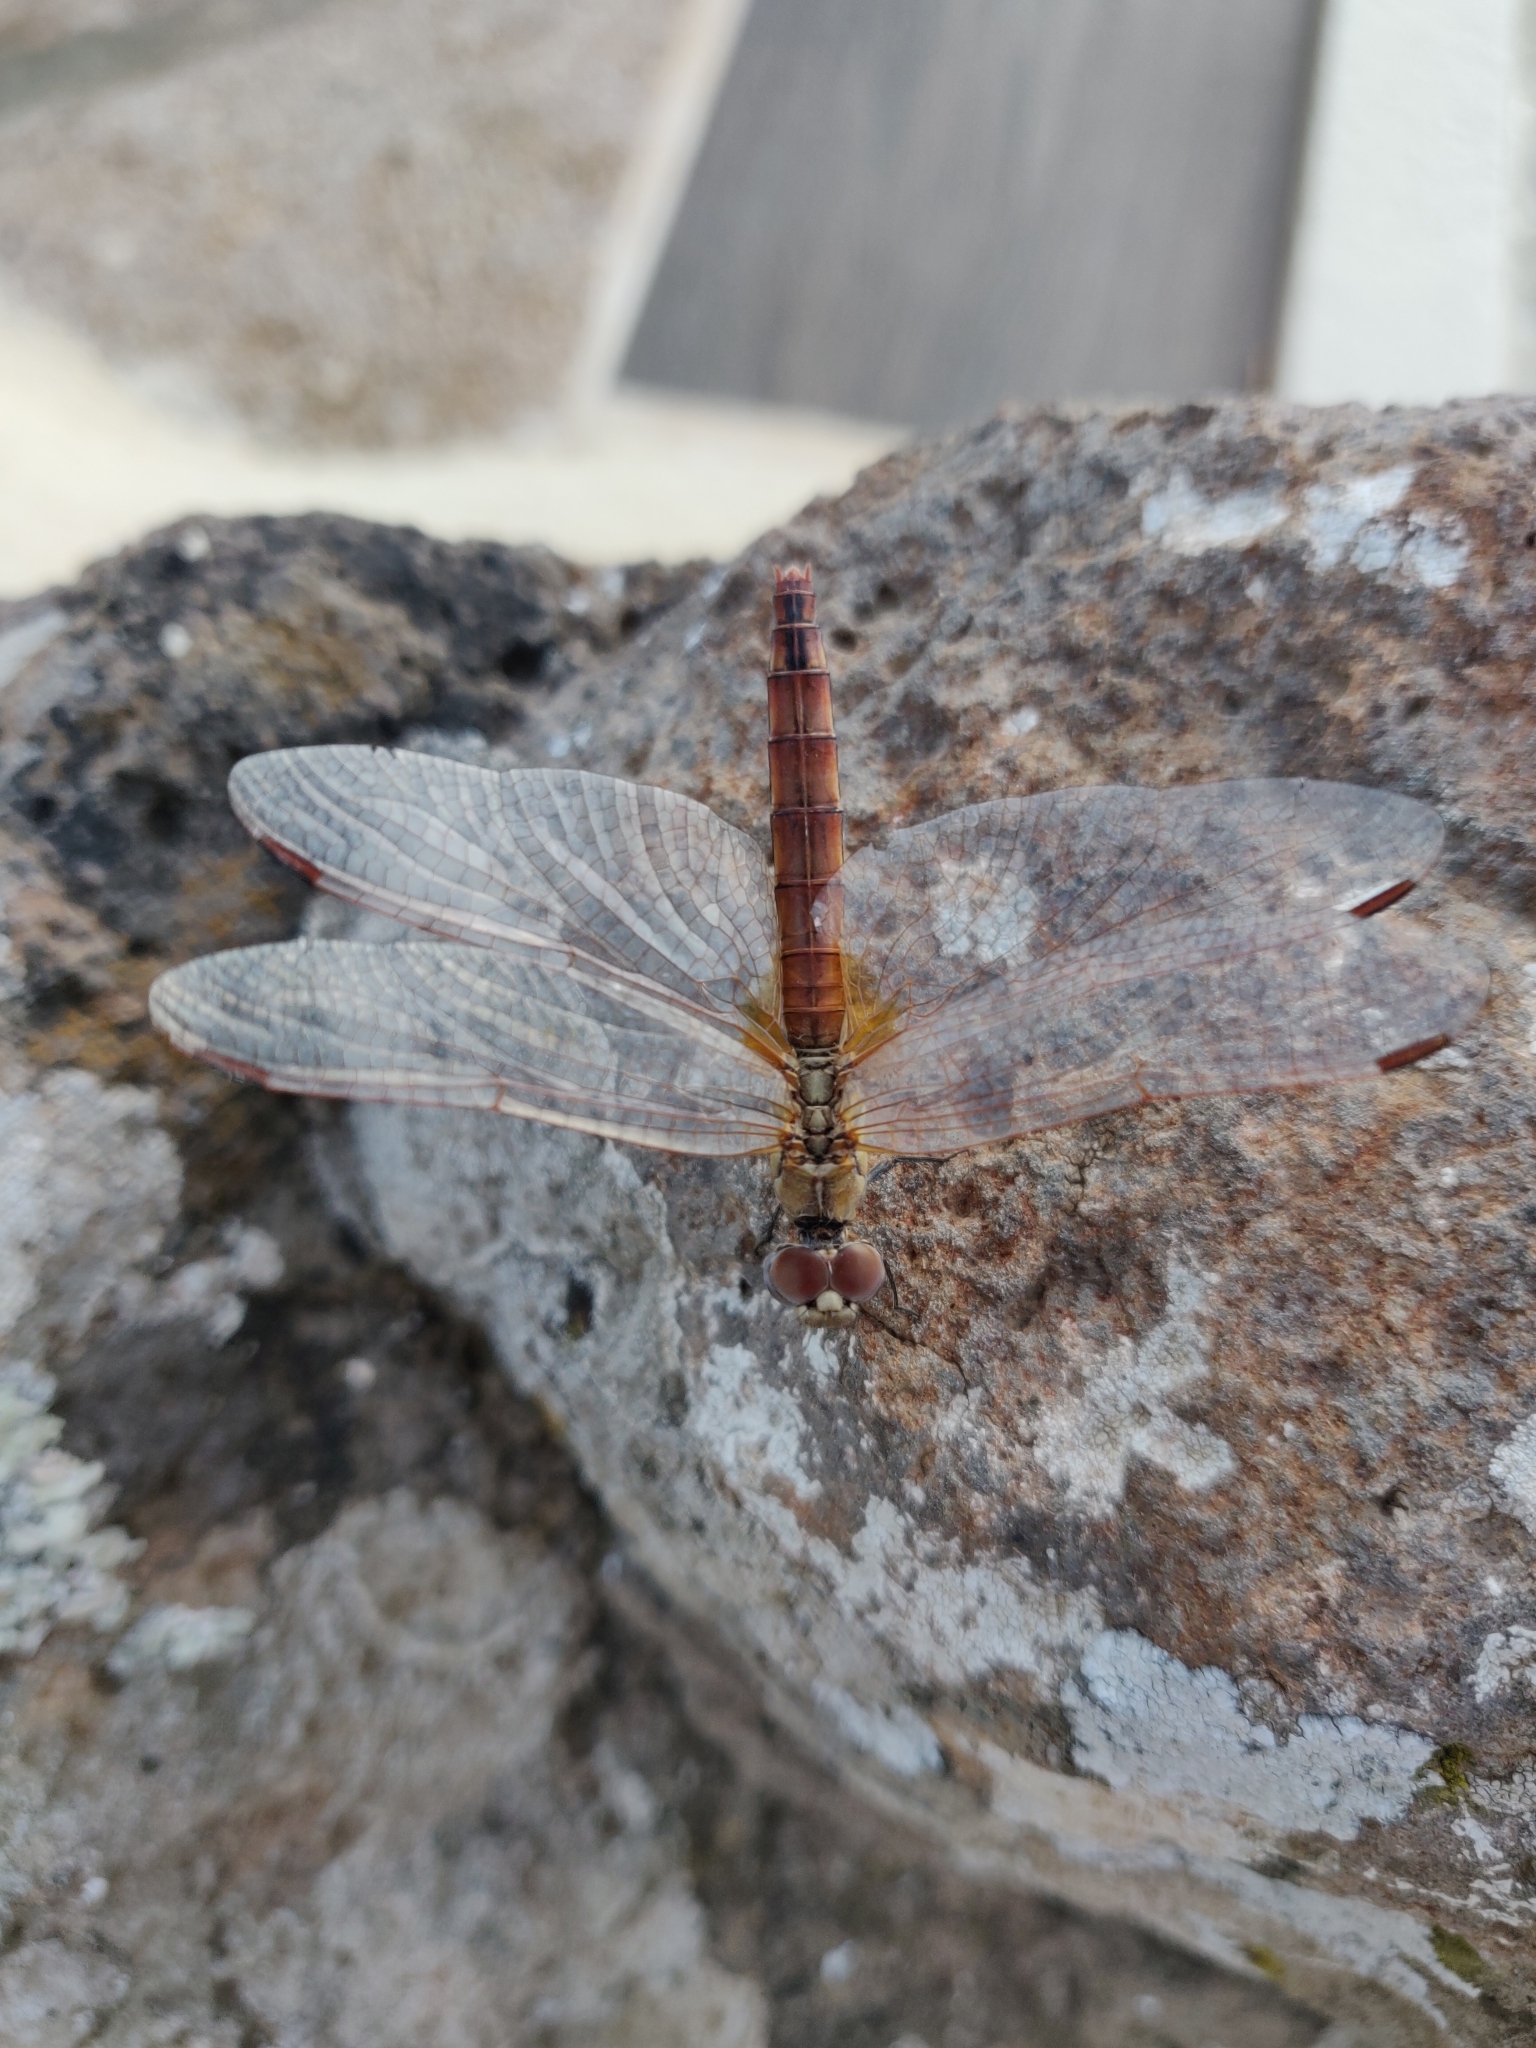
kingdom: Animalia
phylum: Arthropoda
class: Insecta
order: Odonata
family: Libellulidae
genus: Trithemis
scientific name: Trithemis annulata
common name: Violet dropwing
